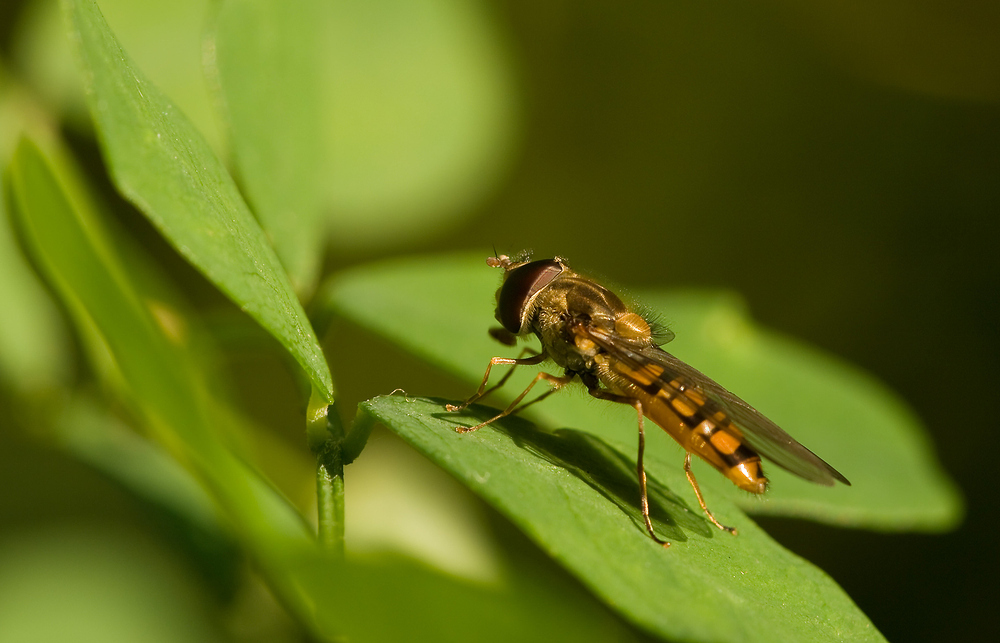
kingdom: Animalia
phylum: Arthropoda
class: Insecta
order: Diptera
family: Syrphidae
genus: Episyrphus
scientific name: Episyrphus balteatus
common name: Marmalade hoverfly
